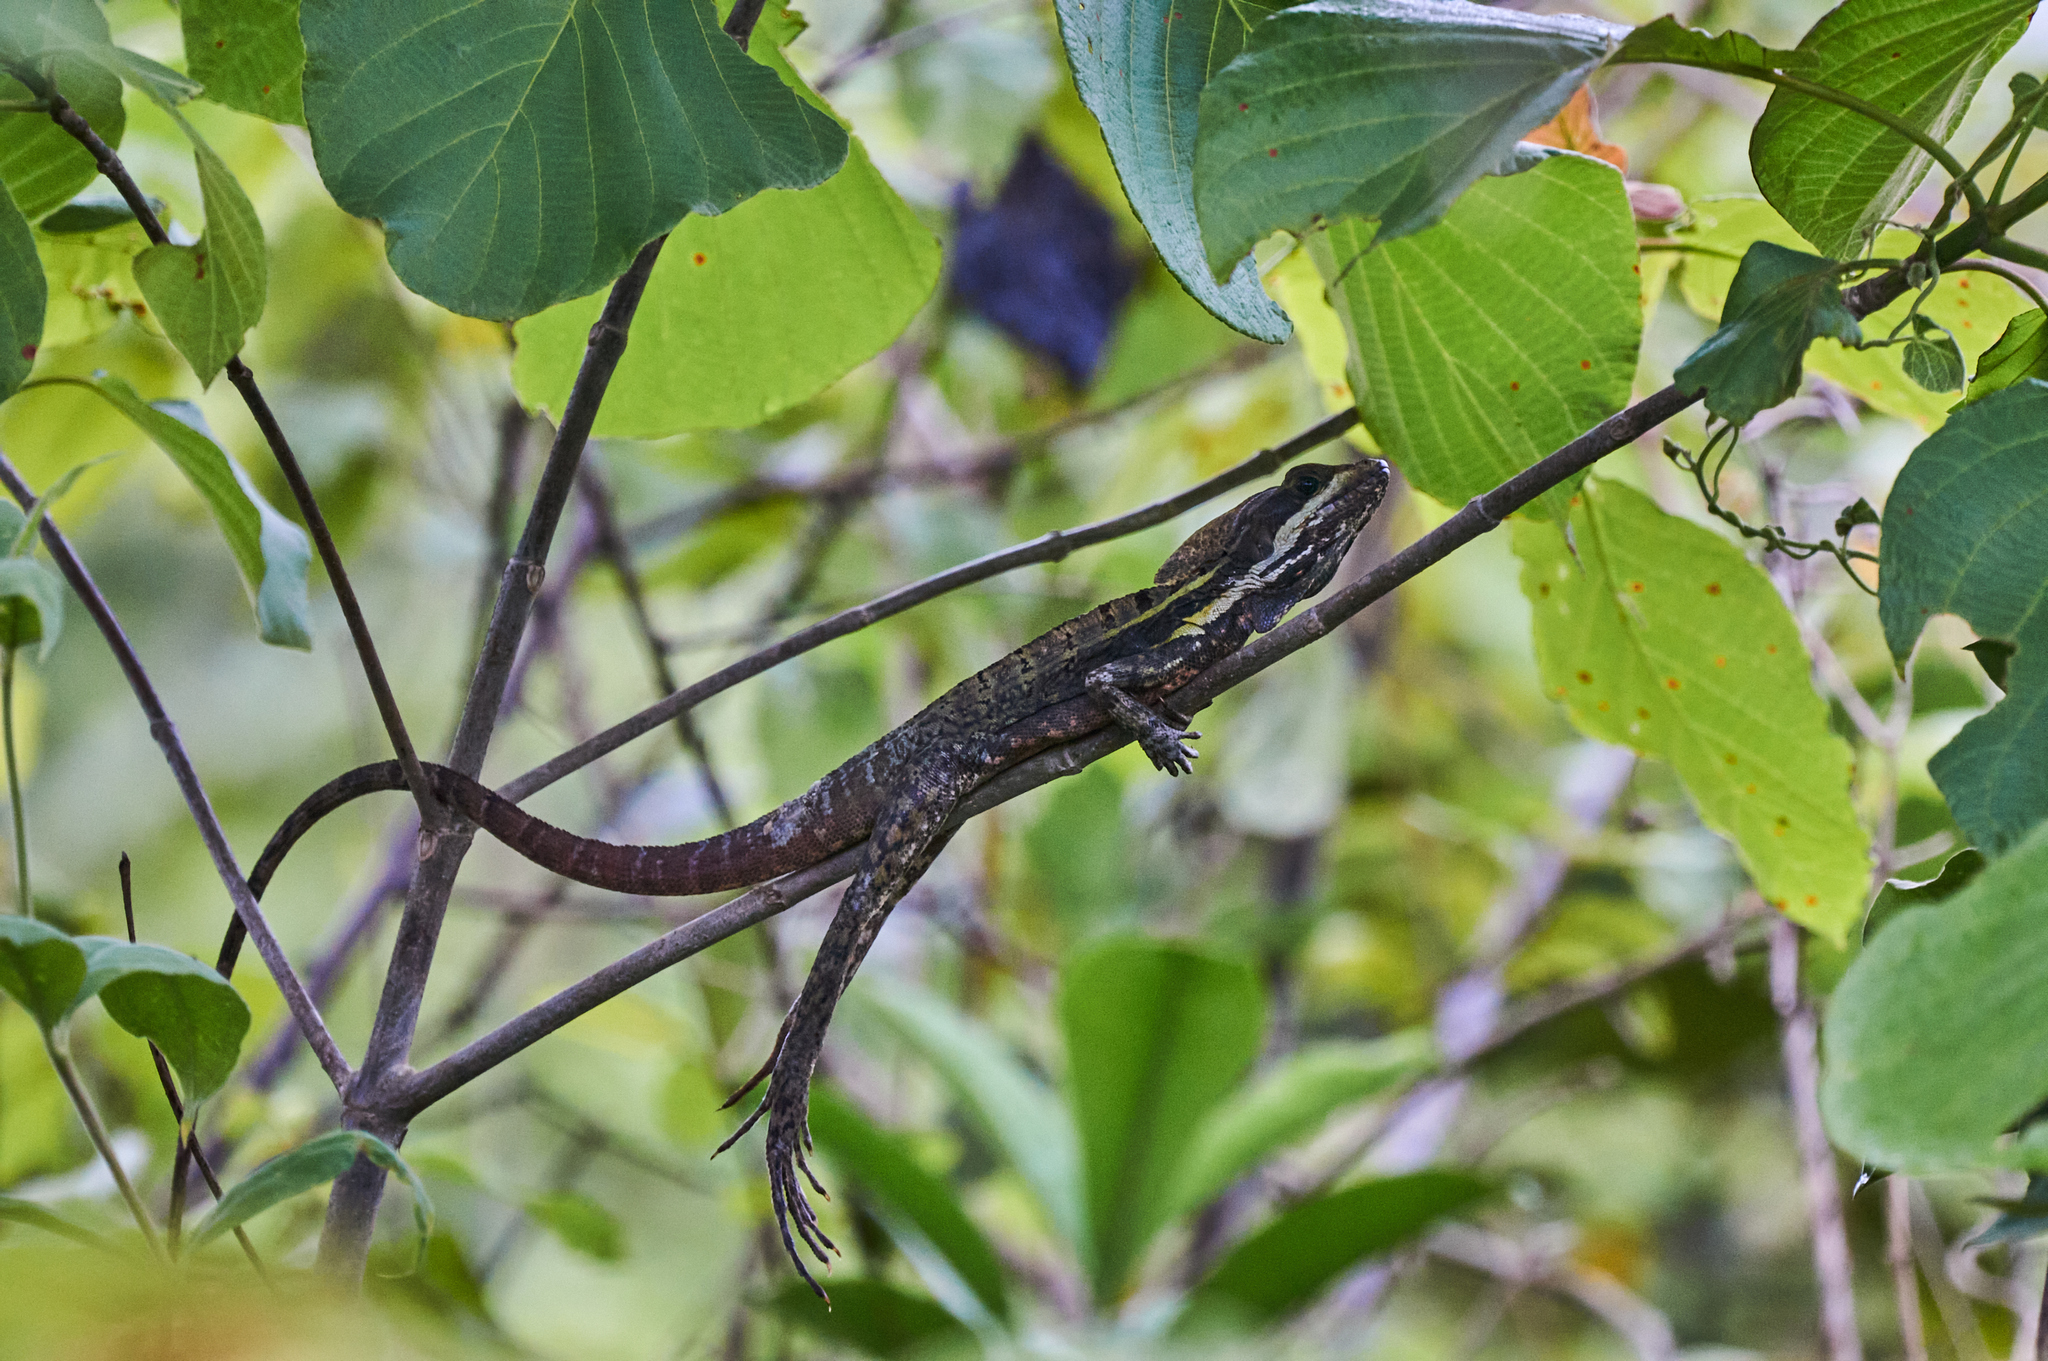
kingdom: Animalia
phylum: Chordata
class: Squamata
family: Corytophanidae
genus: Basiliscus
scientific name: Basiliscus vittatus
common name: Brown basilisk
